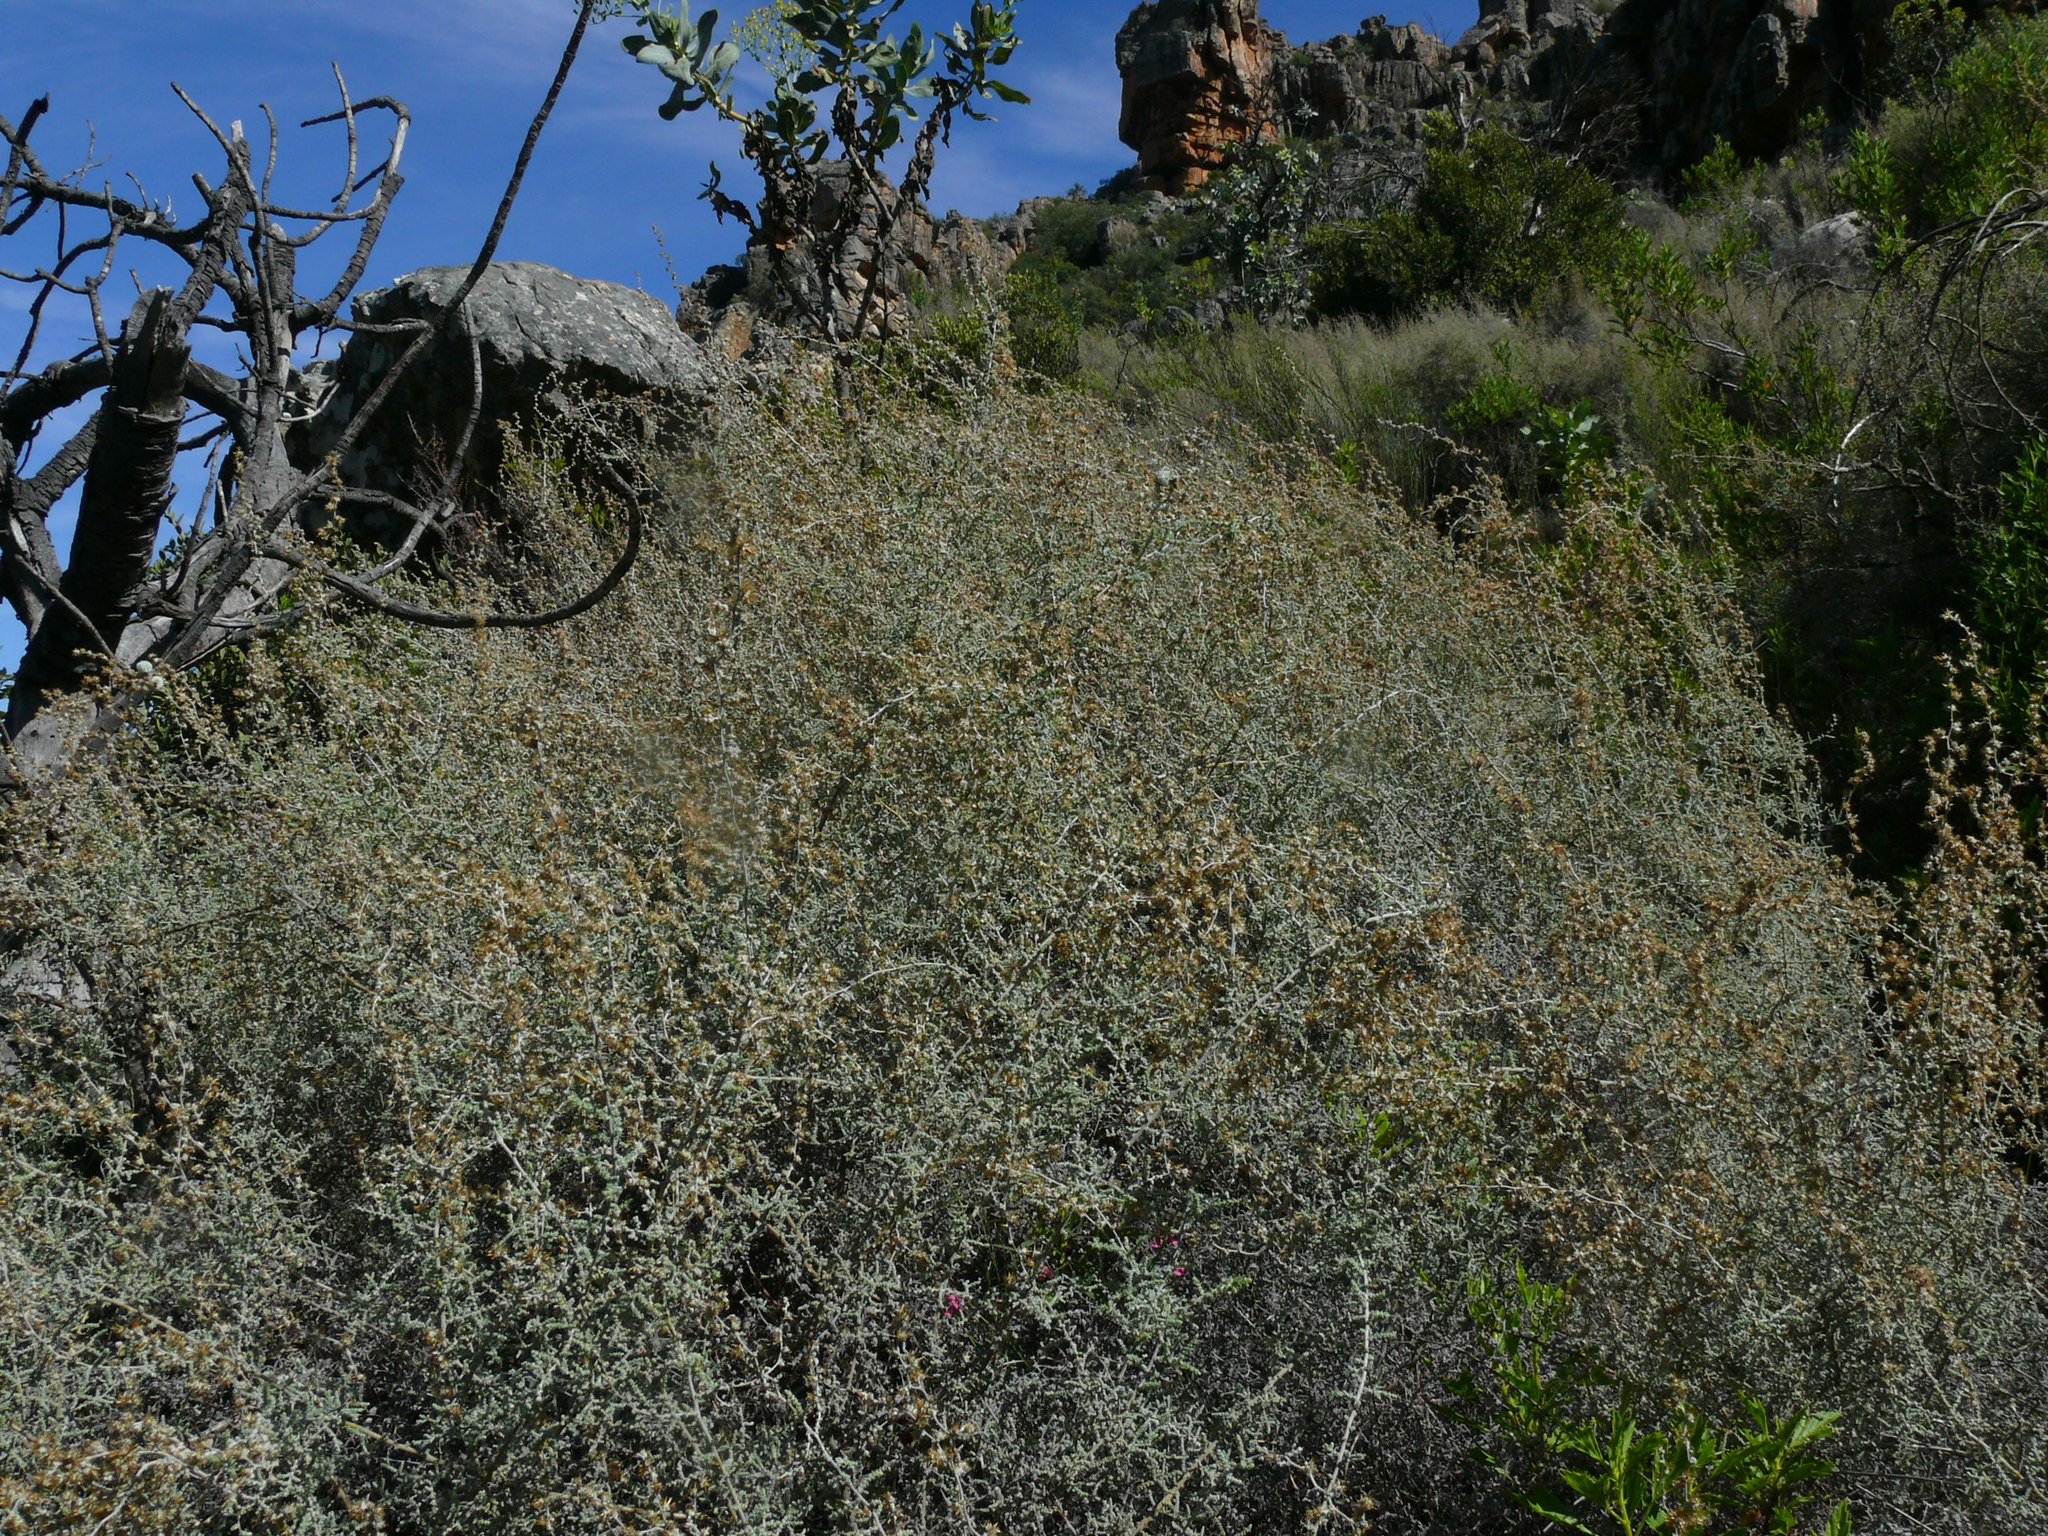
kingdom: Plantae
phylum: Tracheophyta
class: Magnoliopsida
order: Asterales
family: Asteraceae
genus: Seriphium
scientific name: Seriphium plumosum
